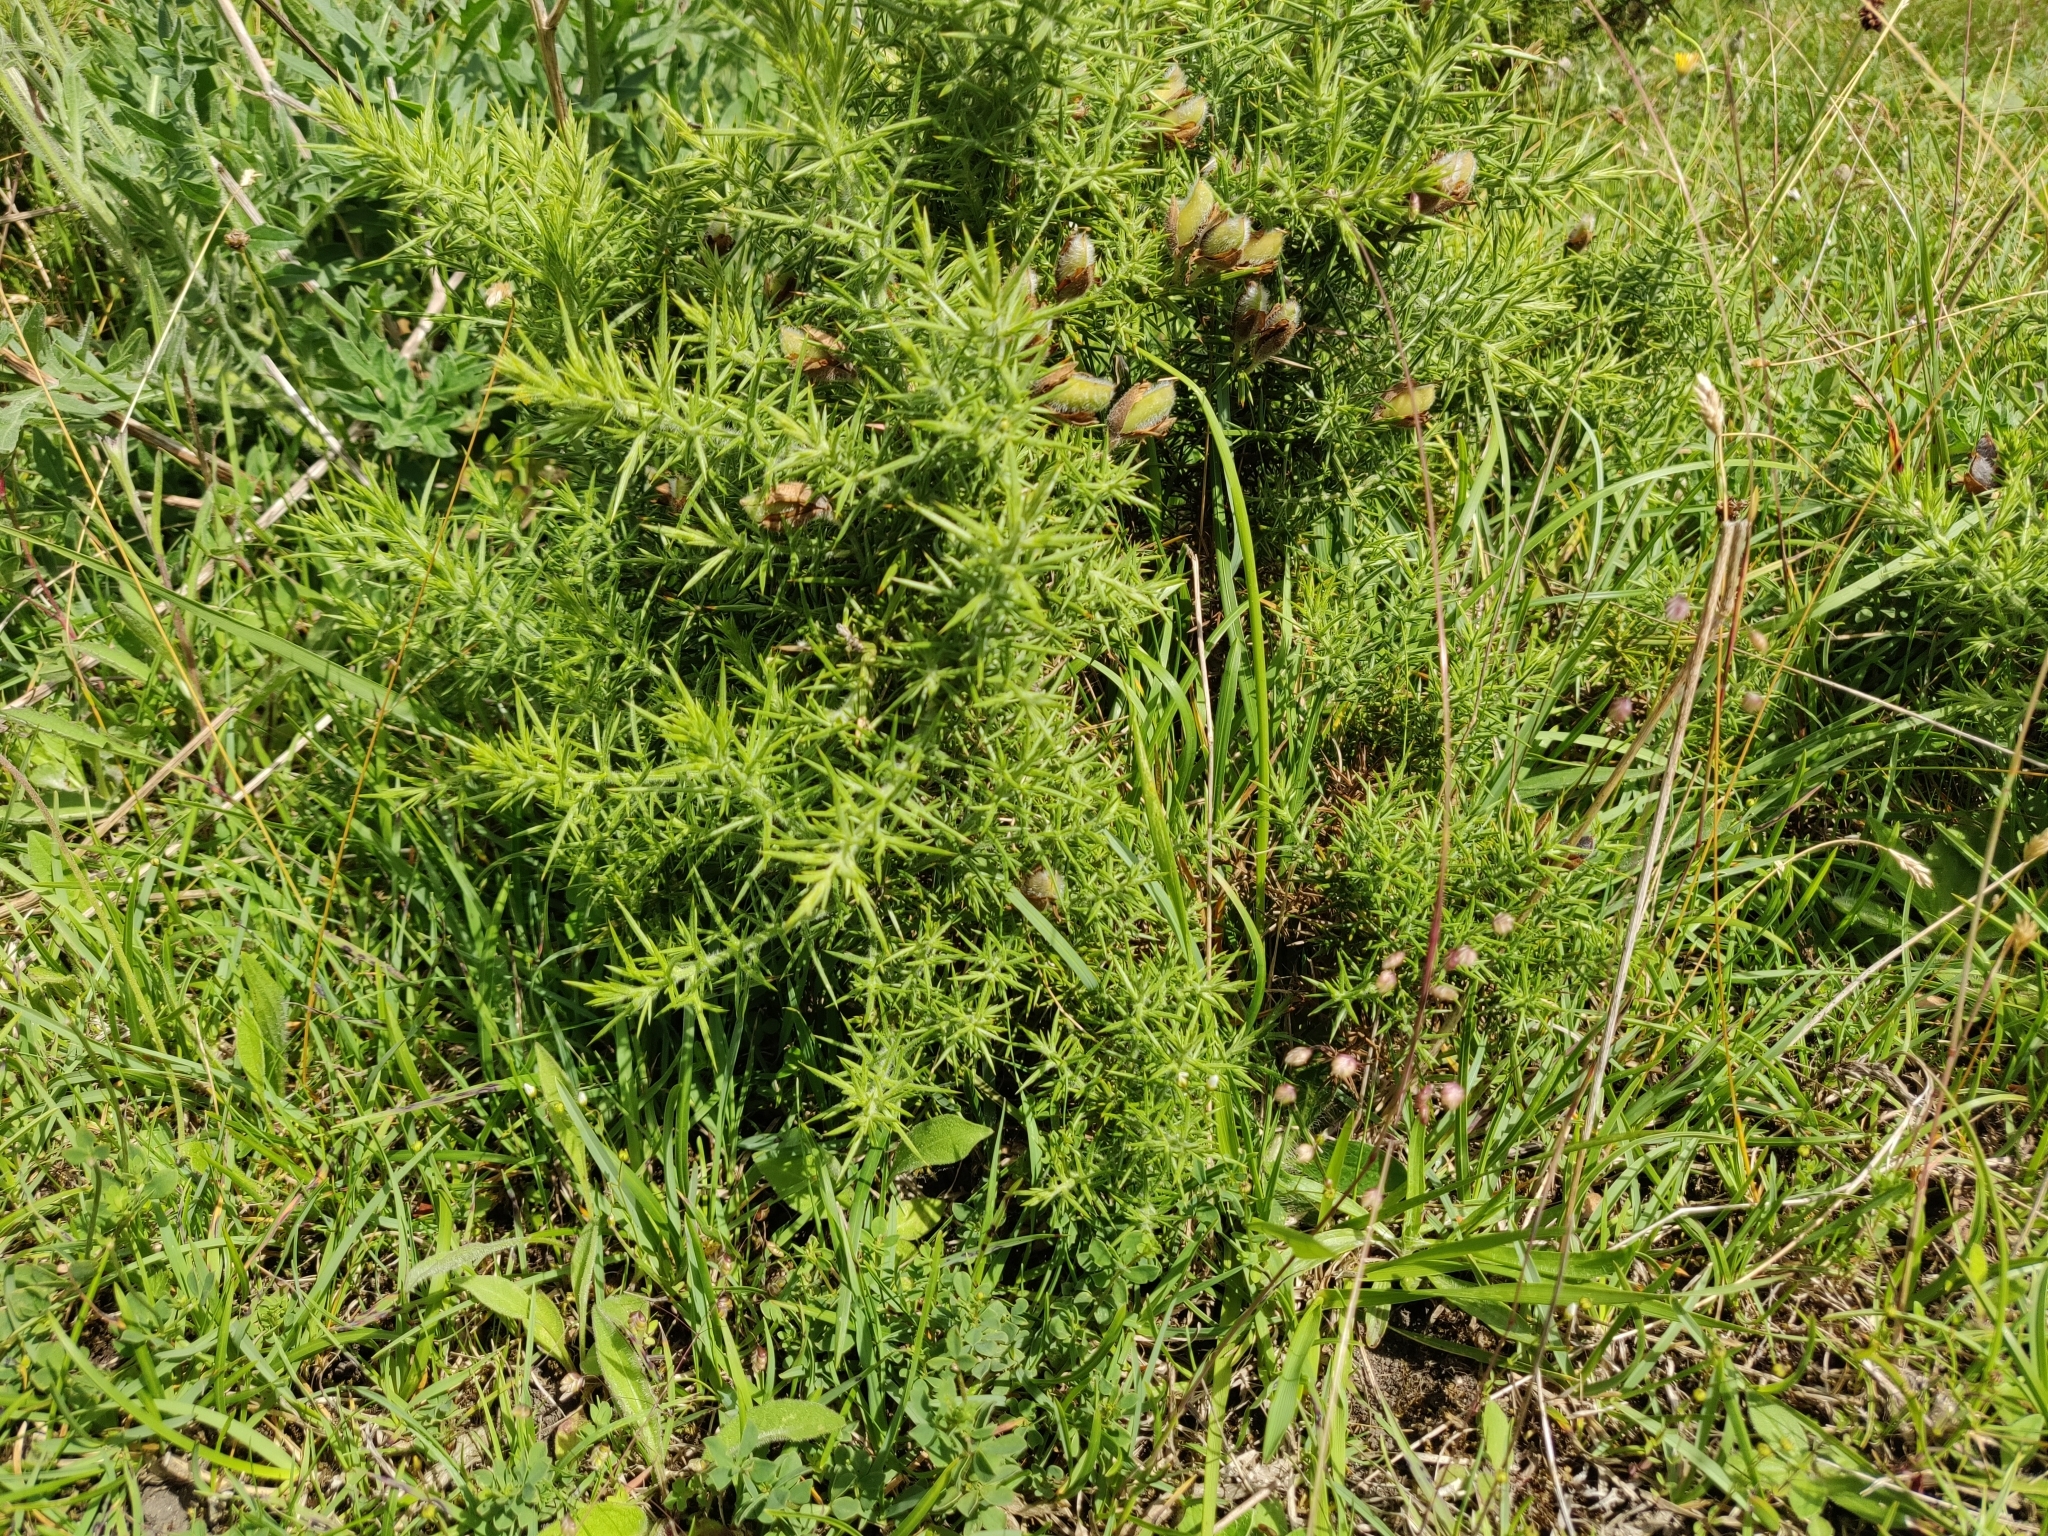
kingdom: Plantae
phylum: Tracheophyta
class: Magnoliopsida
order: Fabales
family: Fabaceae
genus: Ulex
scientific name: Ulex europaeus
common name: Common gorse
